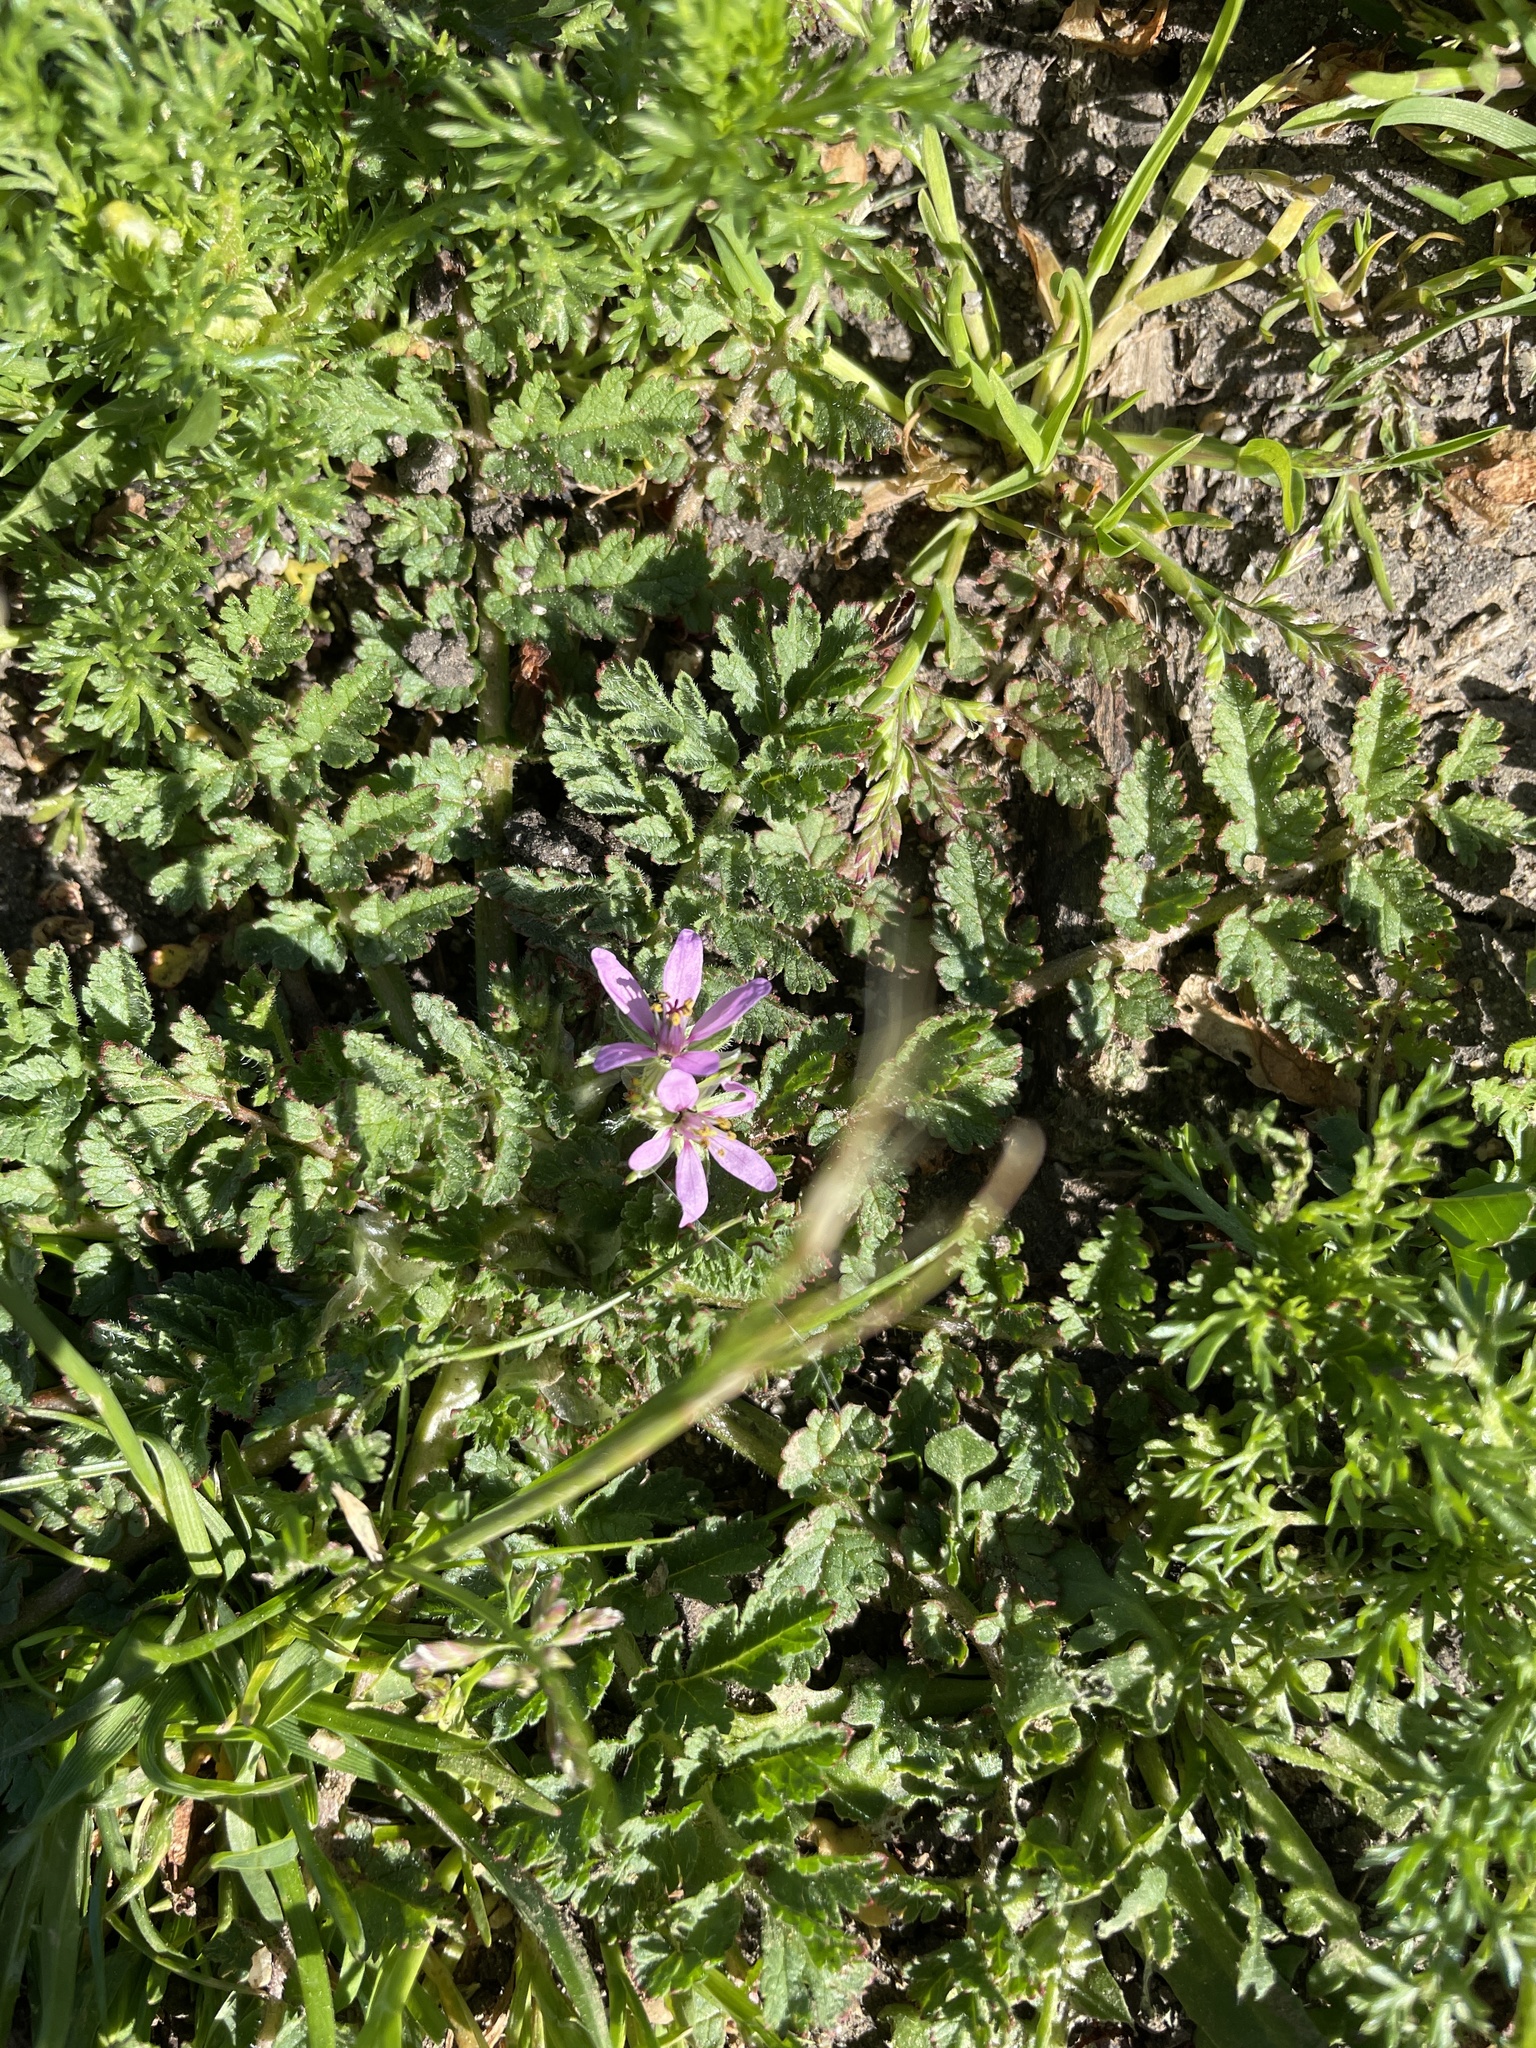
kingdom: Plantae
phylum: Tracheophyta
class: Magnoliopsida
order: Geraniales
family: Geraniaceae
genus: Erodium
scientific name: Erodium moschatum
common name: Musk stork's-bill
